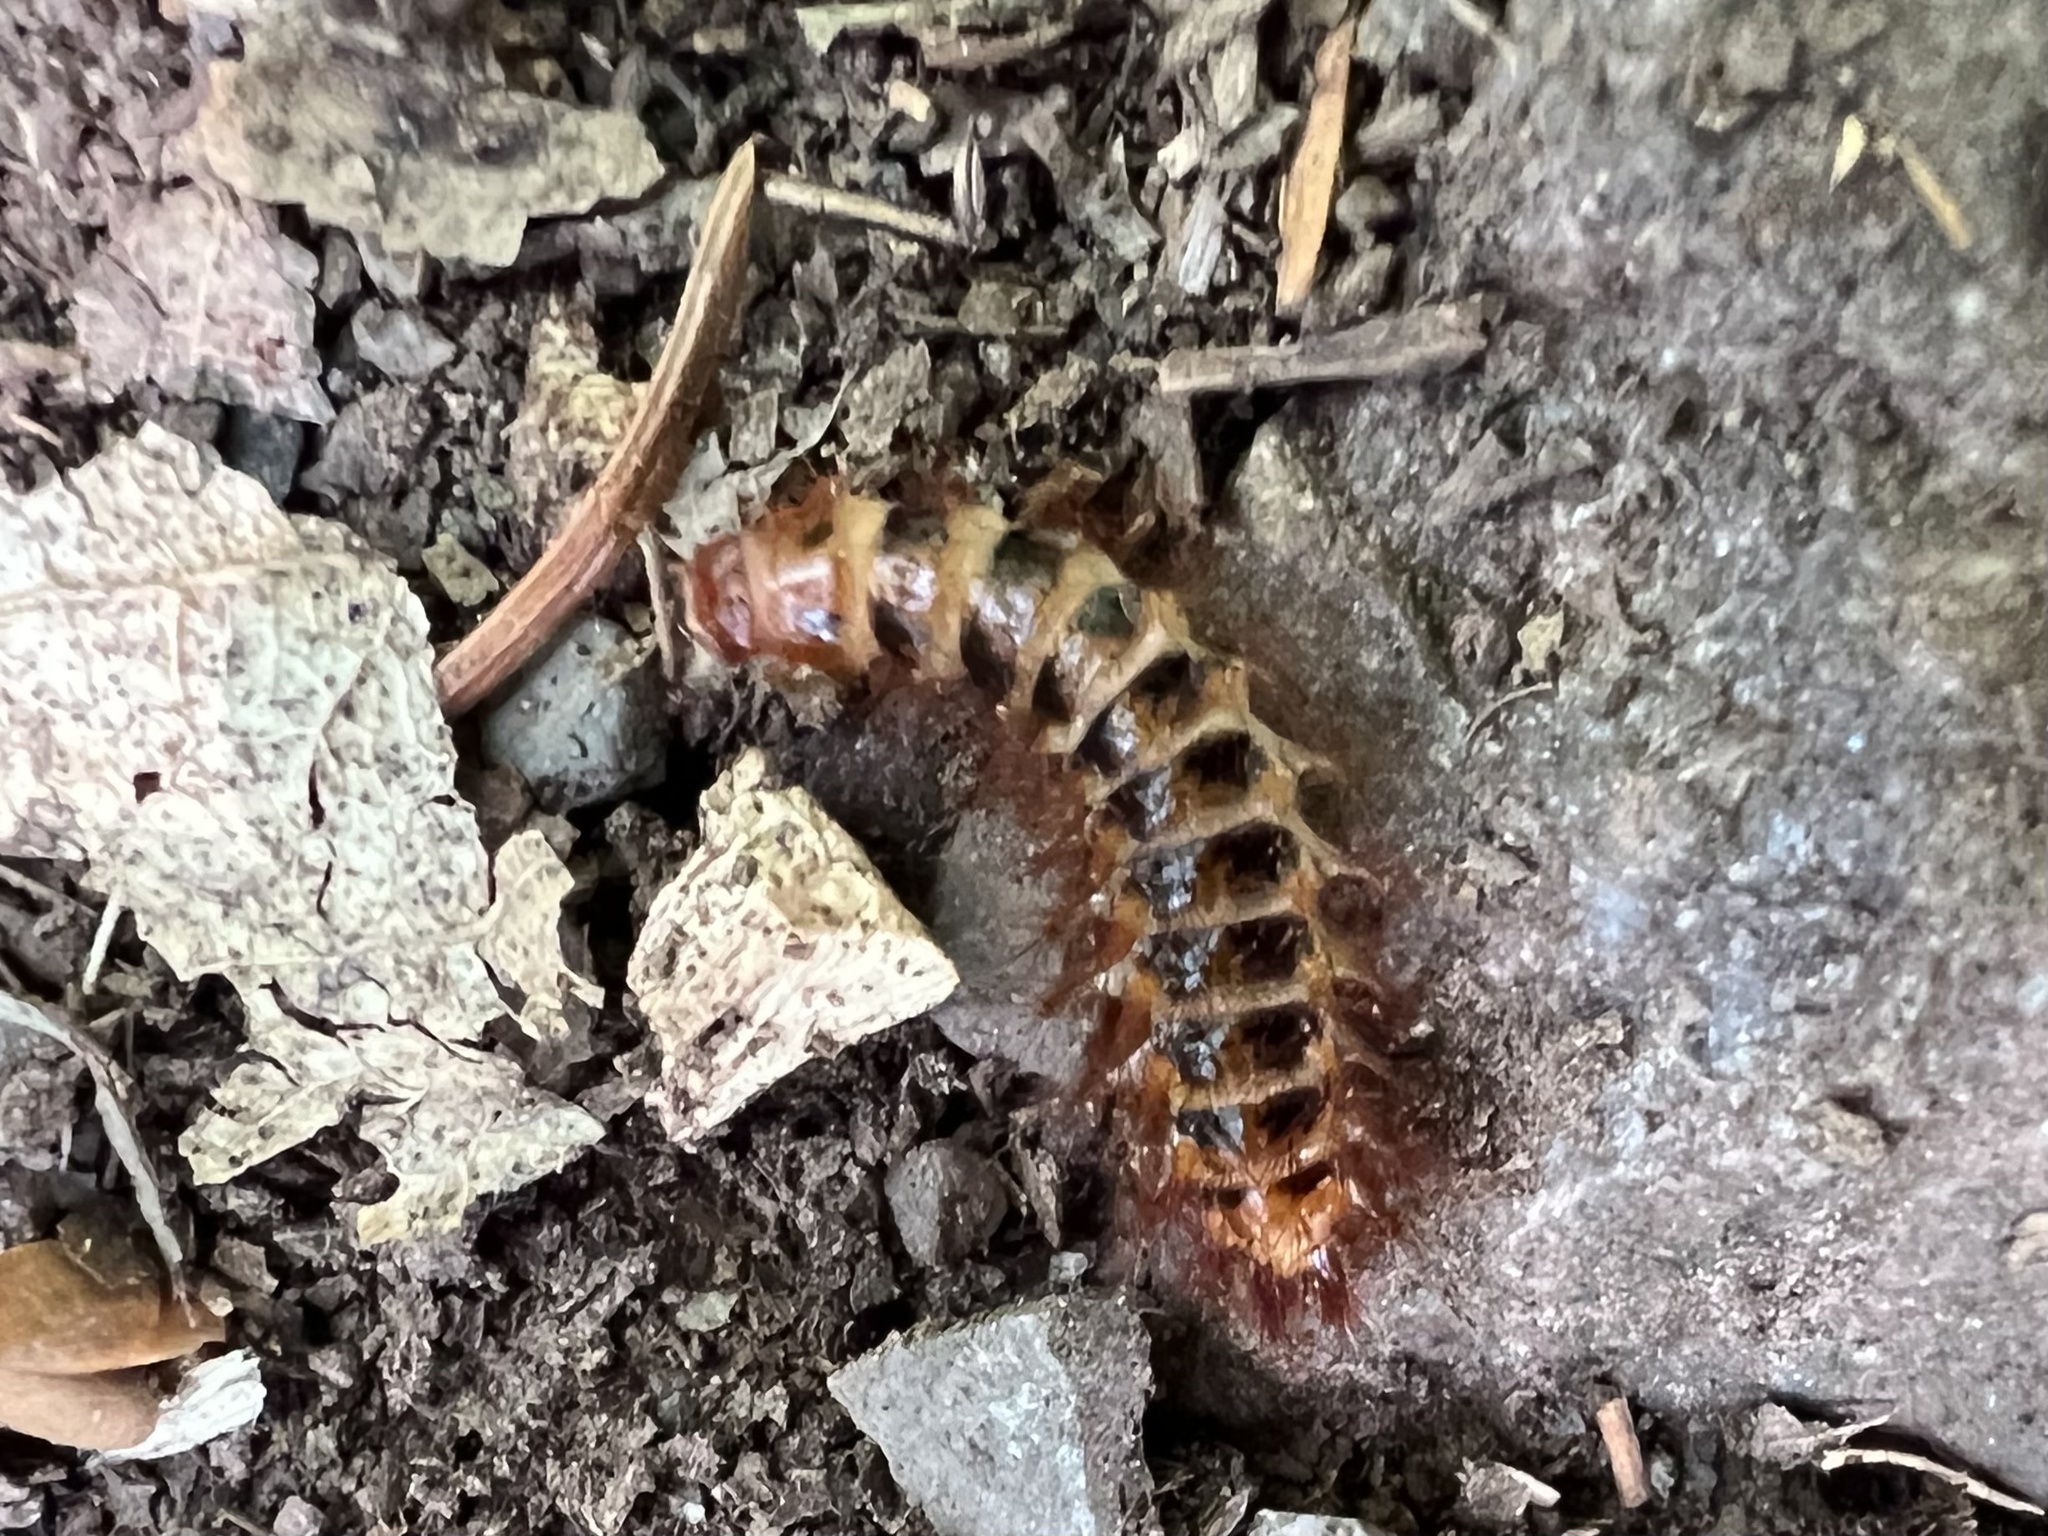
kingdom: Animalia
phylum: Arthropoda
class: Insecta
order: Coleoptera
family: Drilidae
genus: Drilus
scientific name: Drilus flavescens
